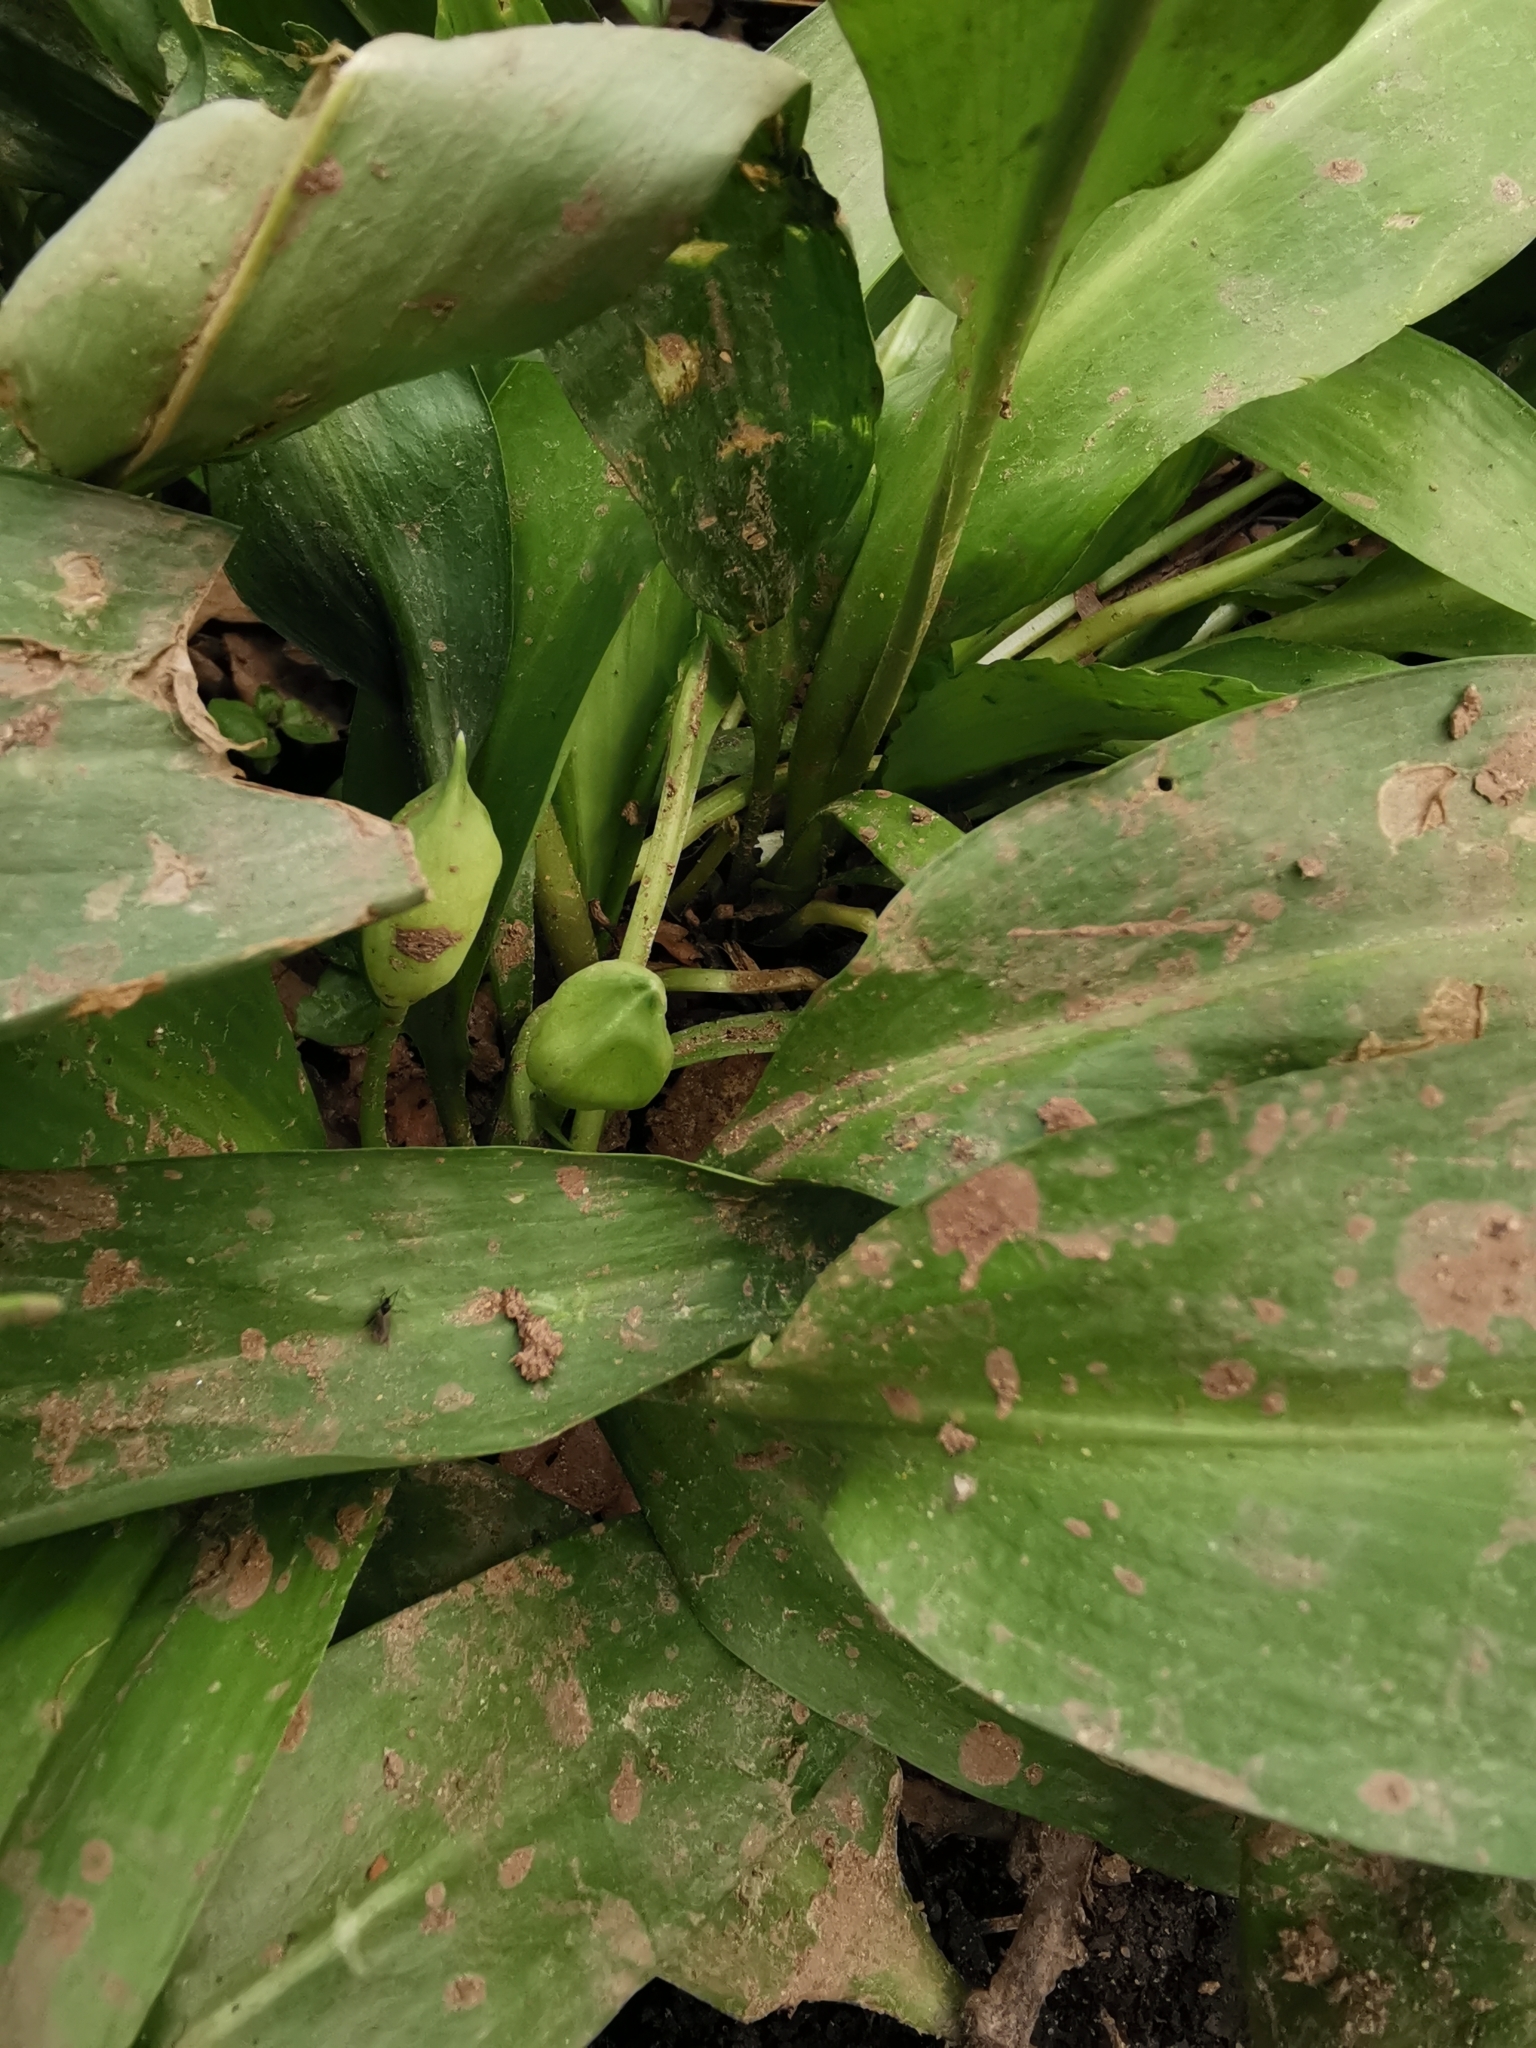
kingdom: Plantae
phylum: Tracheophyta
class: Liliopsida
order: Asparagales
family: Amaryllidaceae
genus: Allium
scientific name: Allium ursinum
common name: Ramsons
